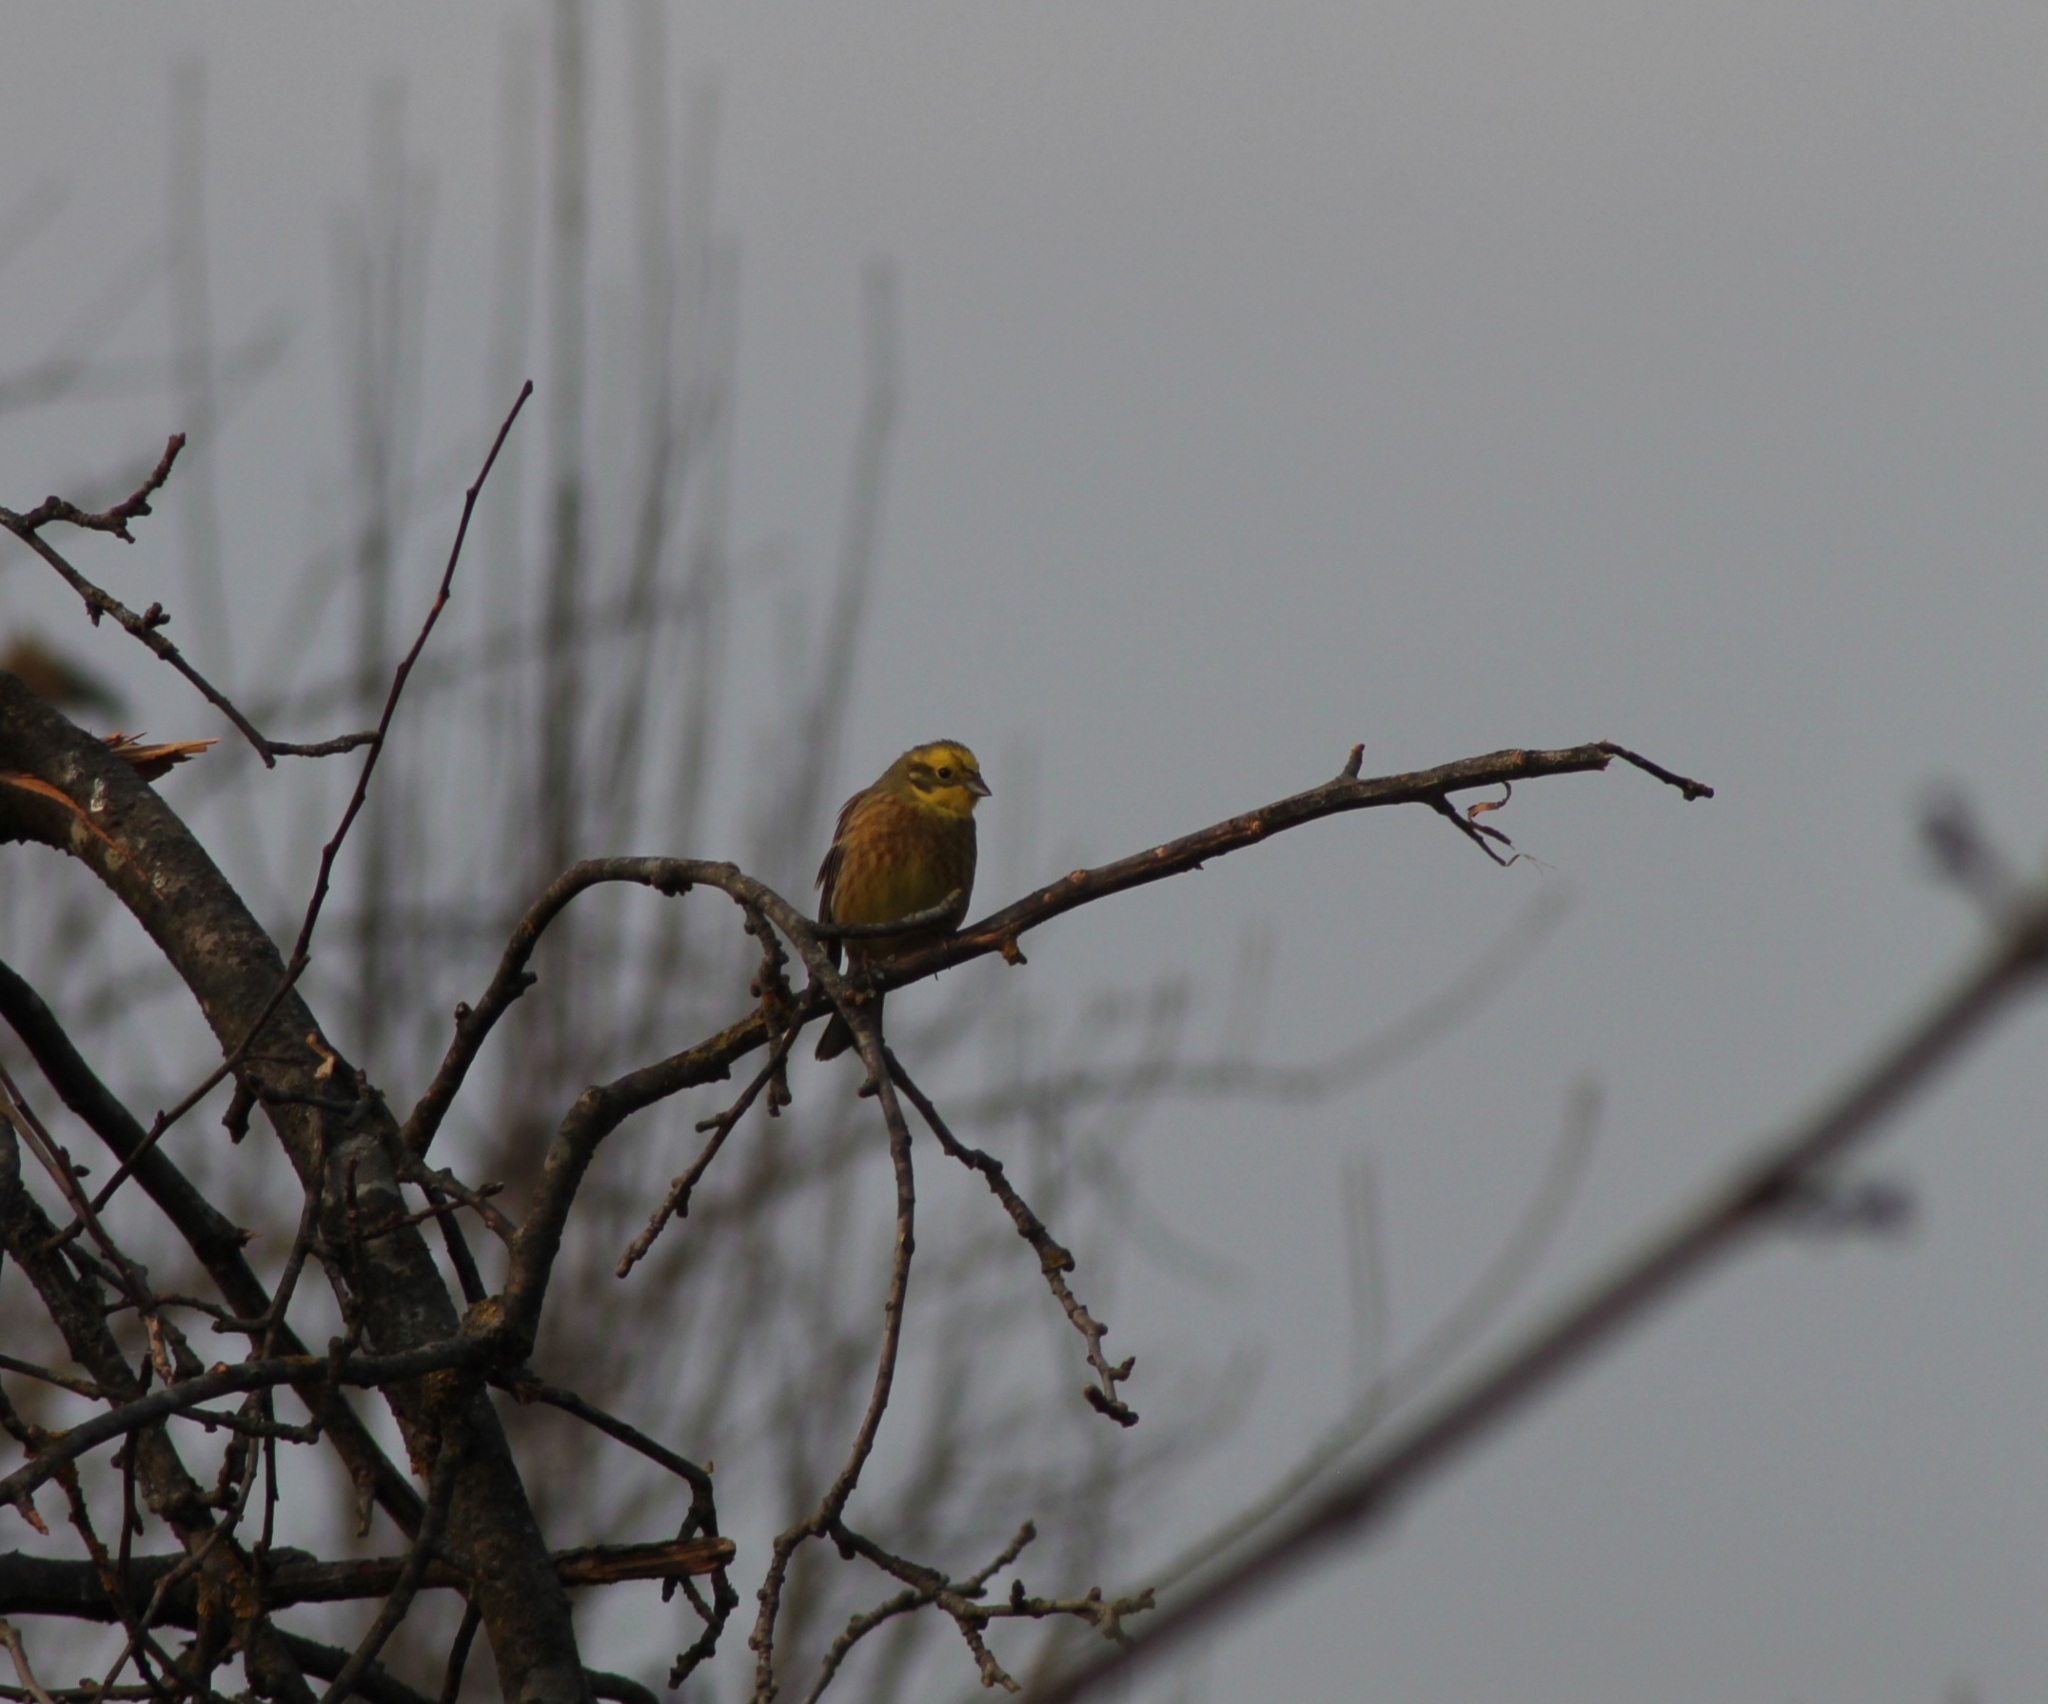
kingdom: Animalia
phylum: Chordata
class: Aves
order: Passeriformes
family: Emberizidae
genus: Emberiza
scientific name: Emberiza citrinella
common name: Yellowhammer
